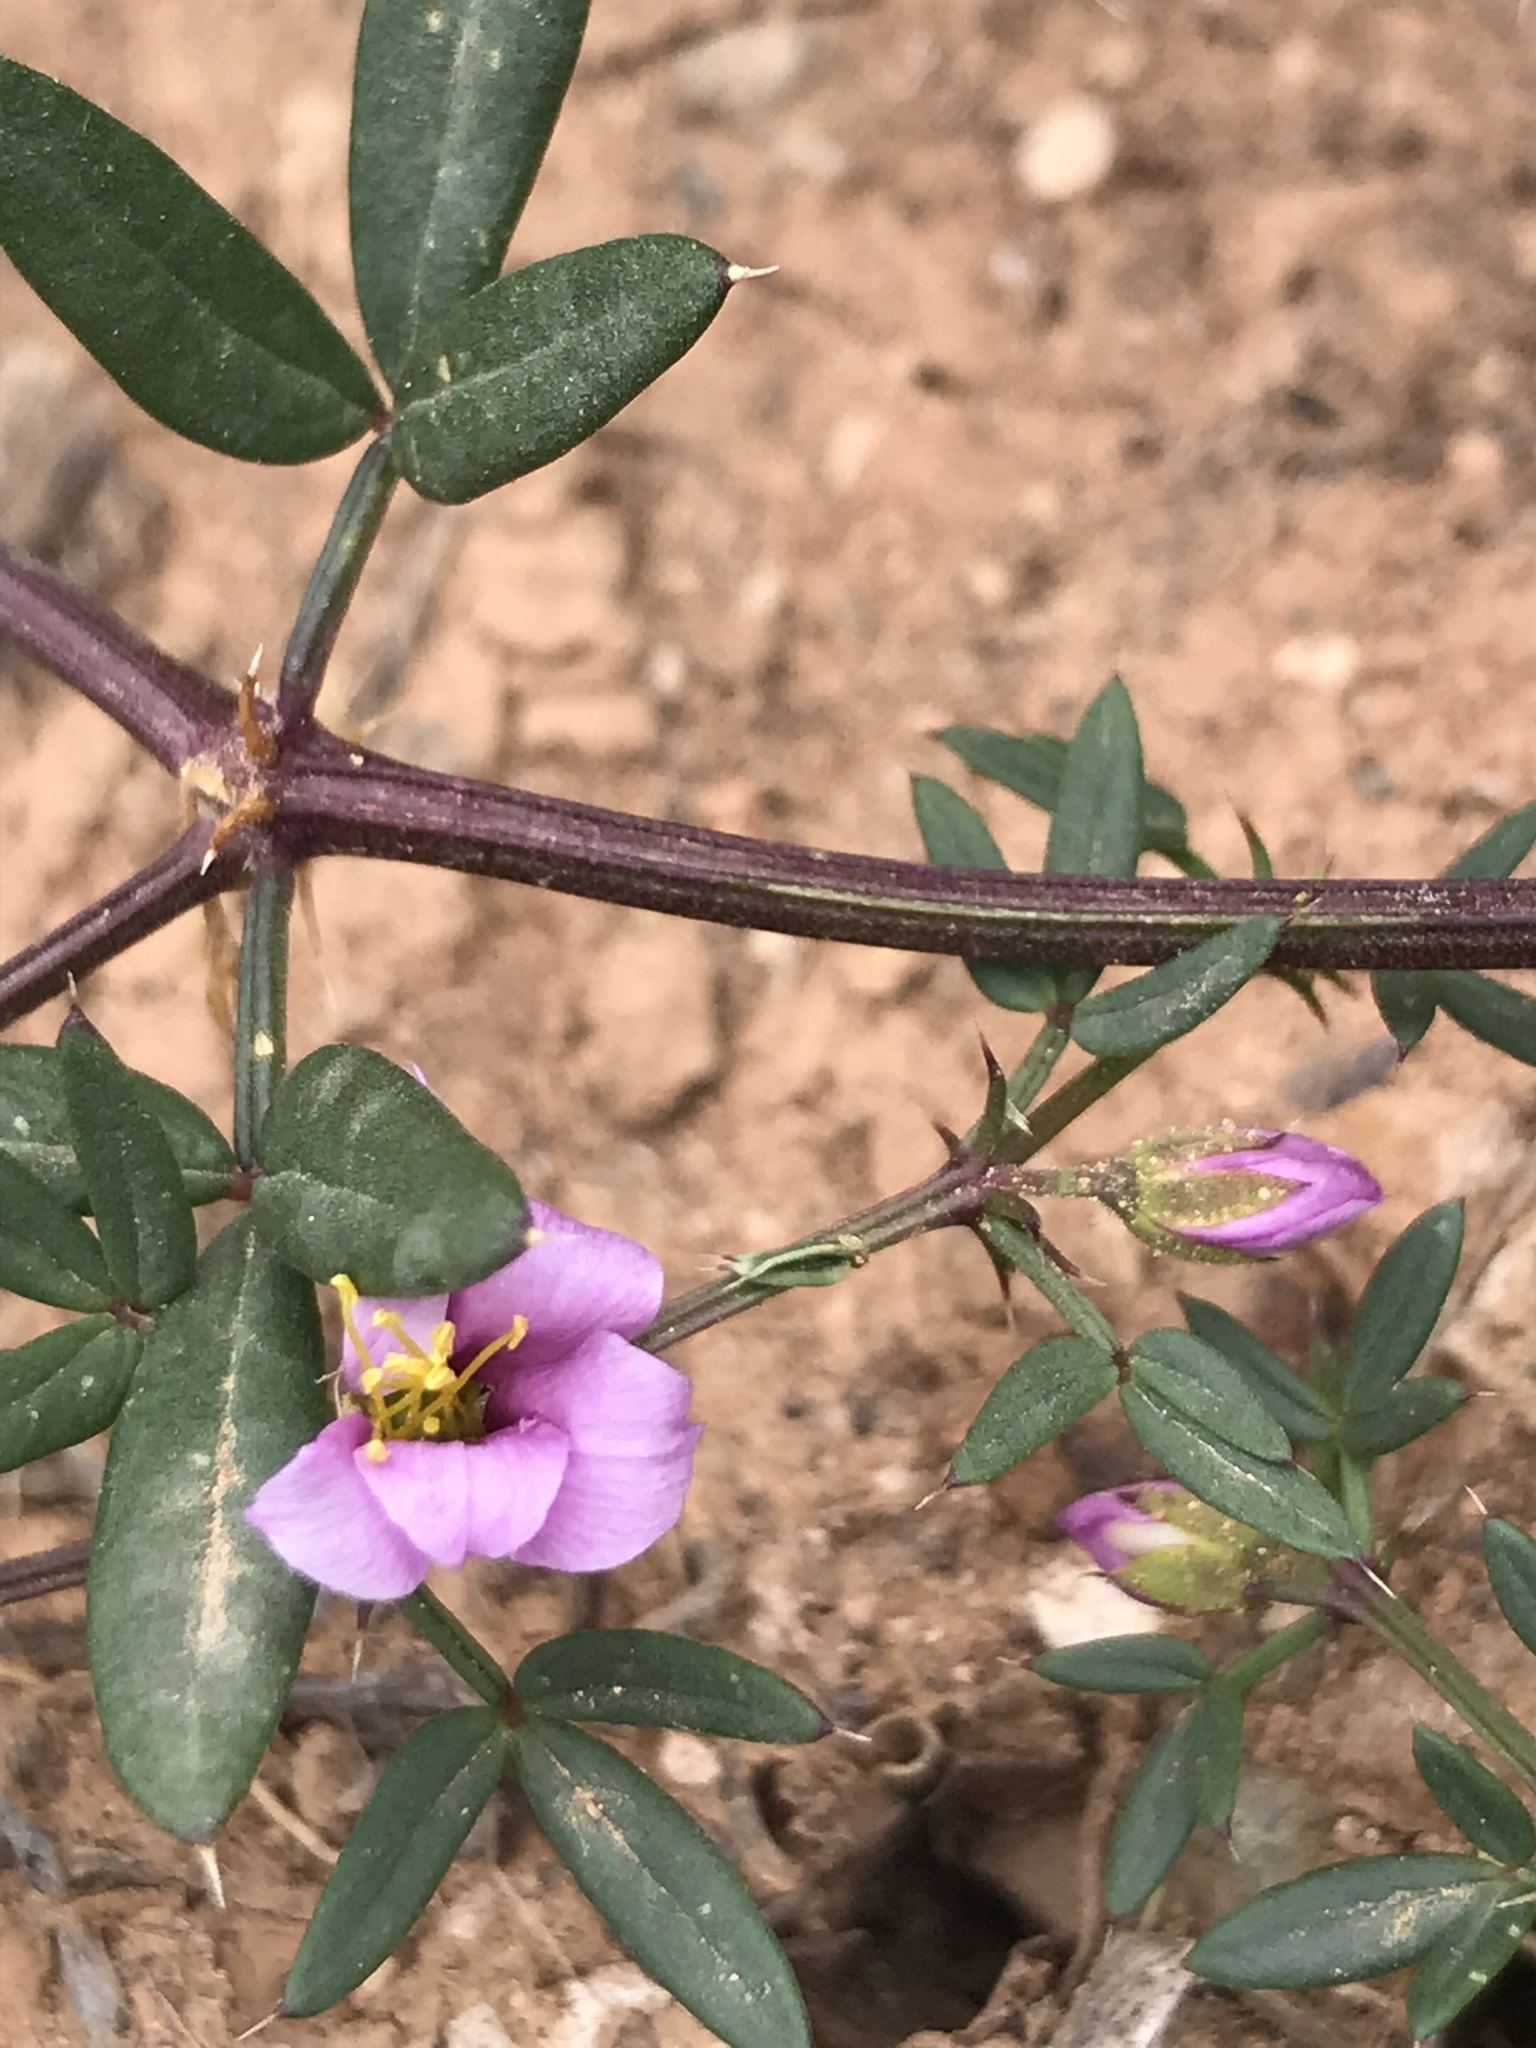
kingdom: Plantae
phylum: Tracheophyta
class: Magnoliopsida
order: Zygophyllales
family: Zygophyllaceae
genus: Fagonia
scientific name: Fagonia cretica
